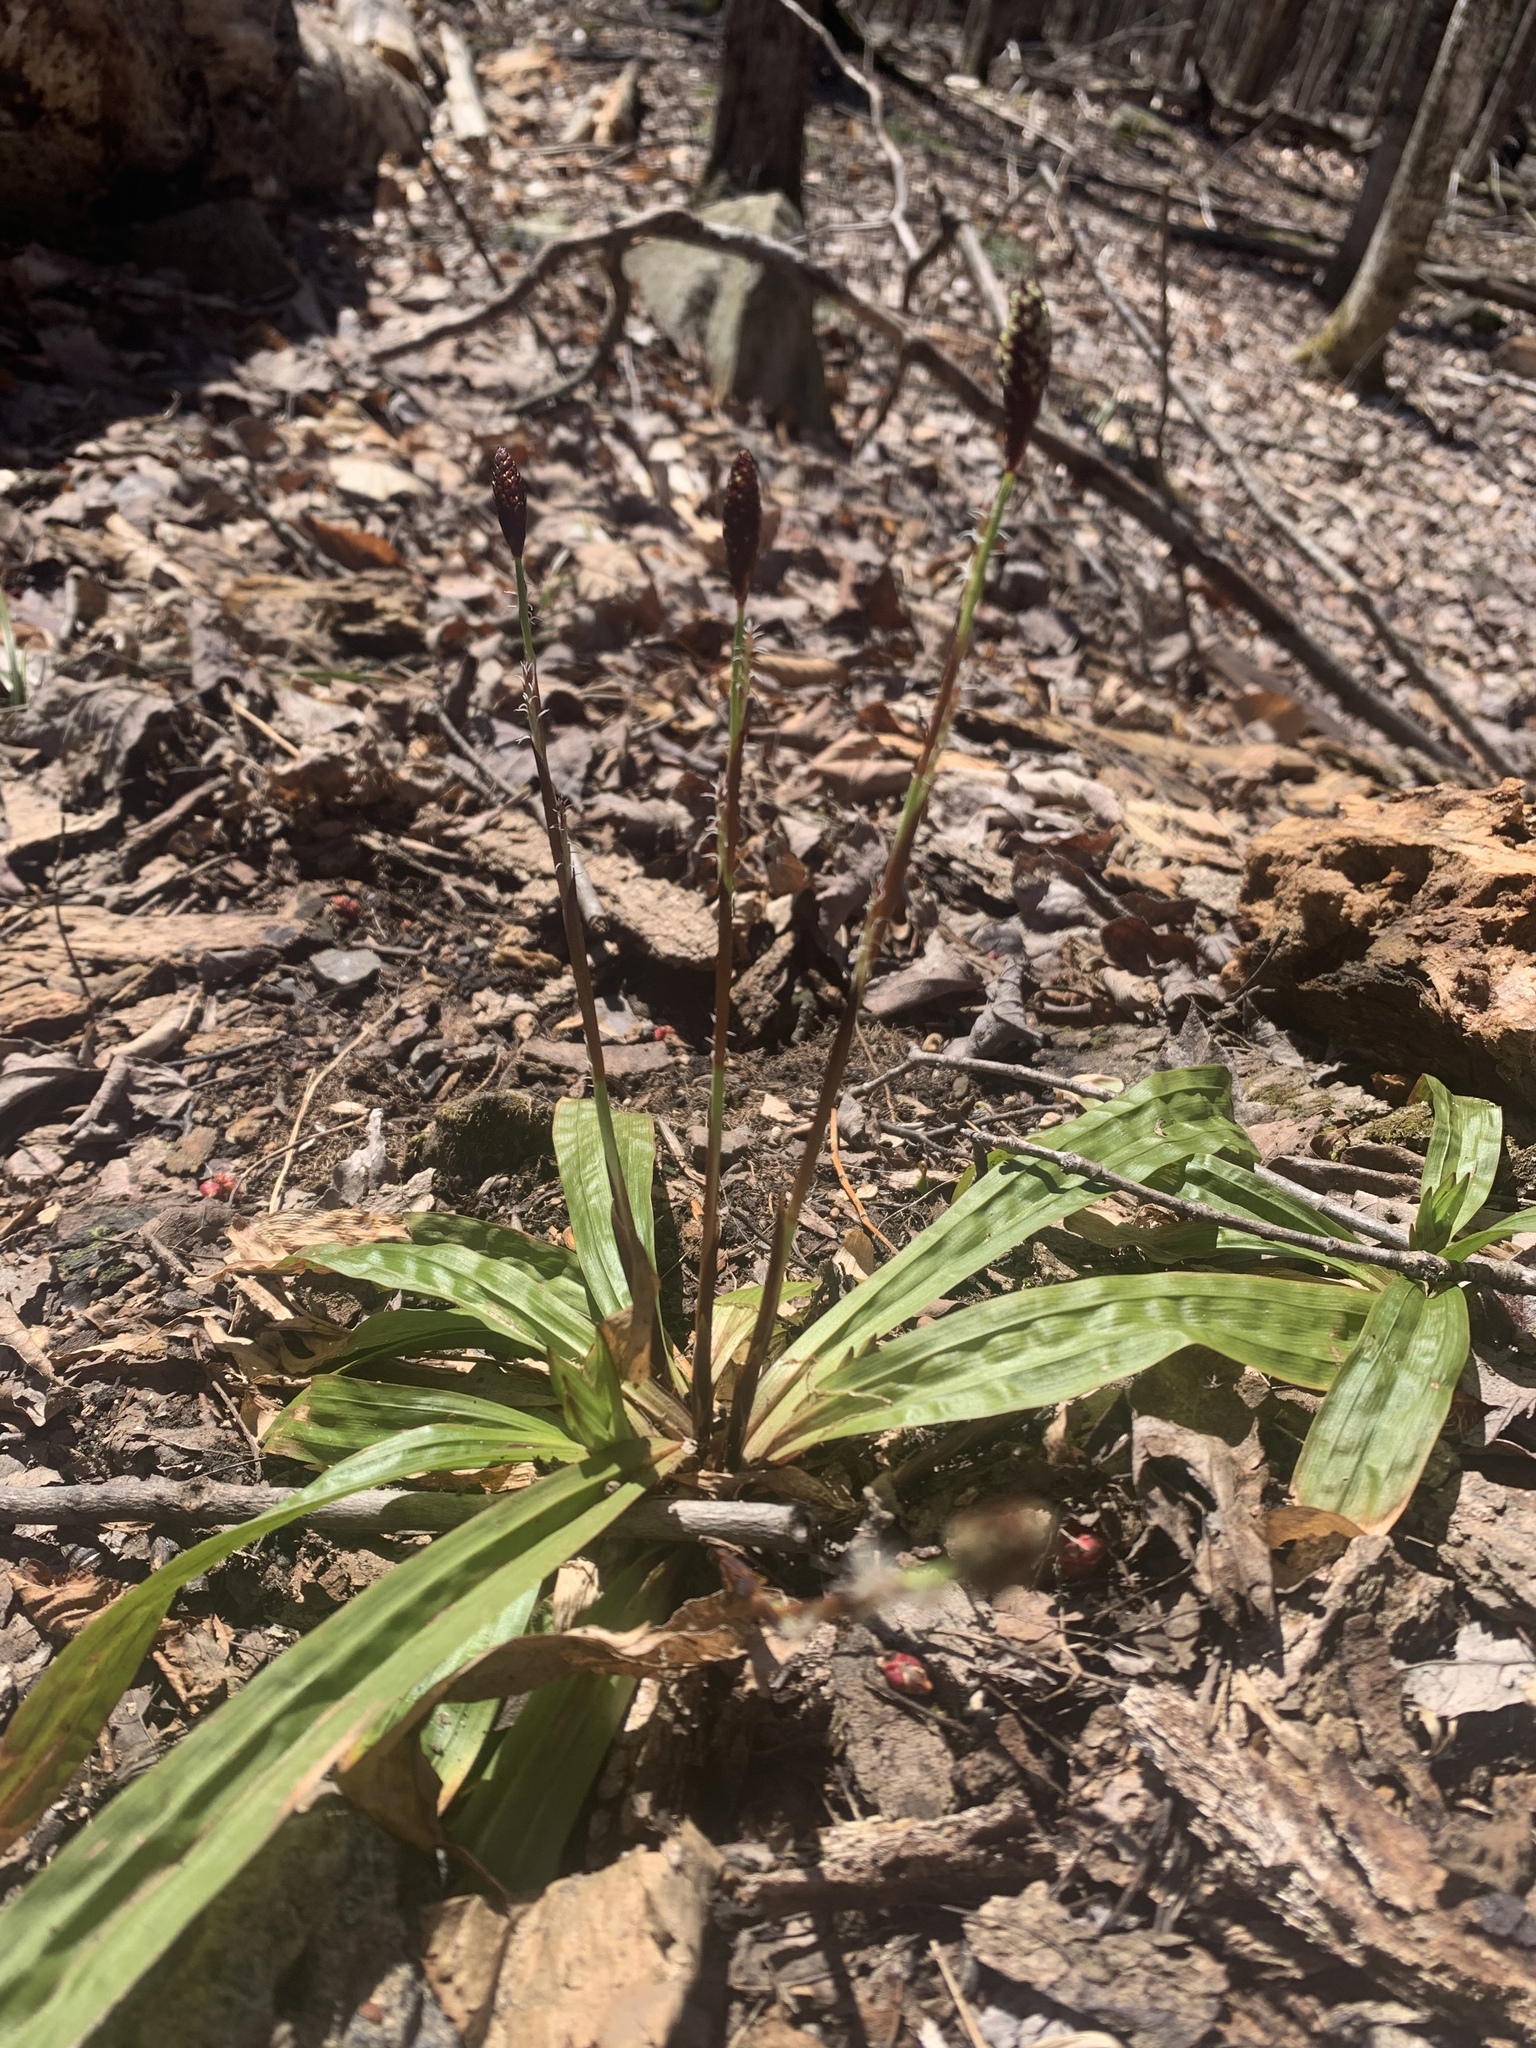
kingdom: Plantae
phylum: Tracheophyta
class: Liliopsida
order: Poales
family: Cyperaceae
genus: Carex
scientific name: Carex plantaginea
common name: Plantain-leaved sedge
